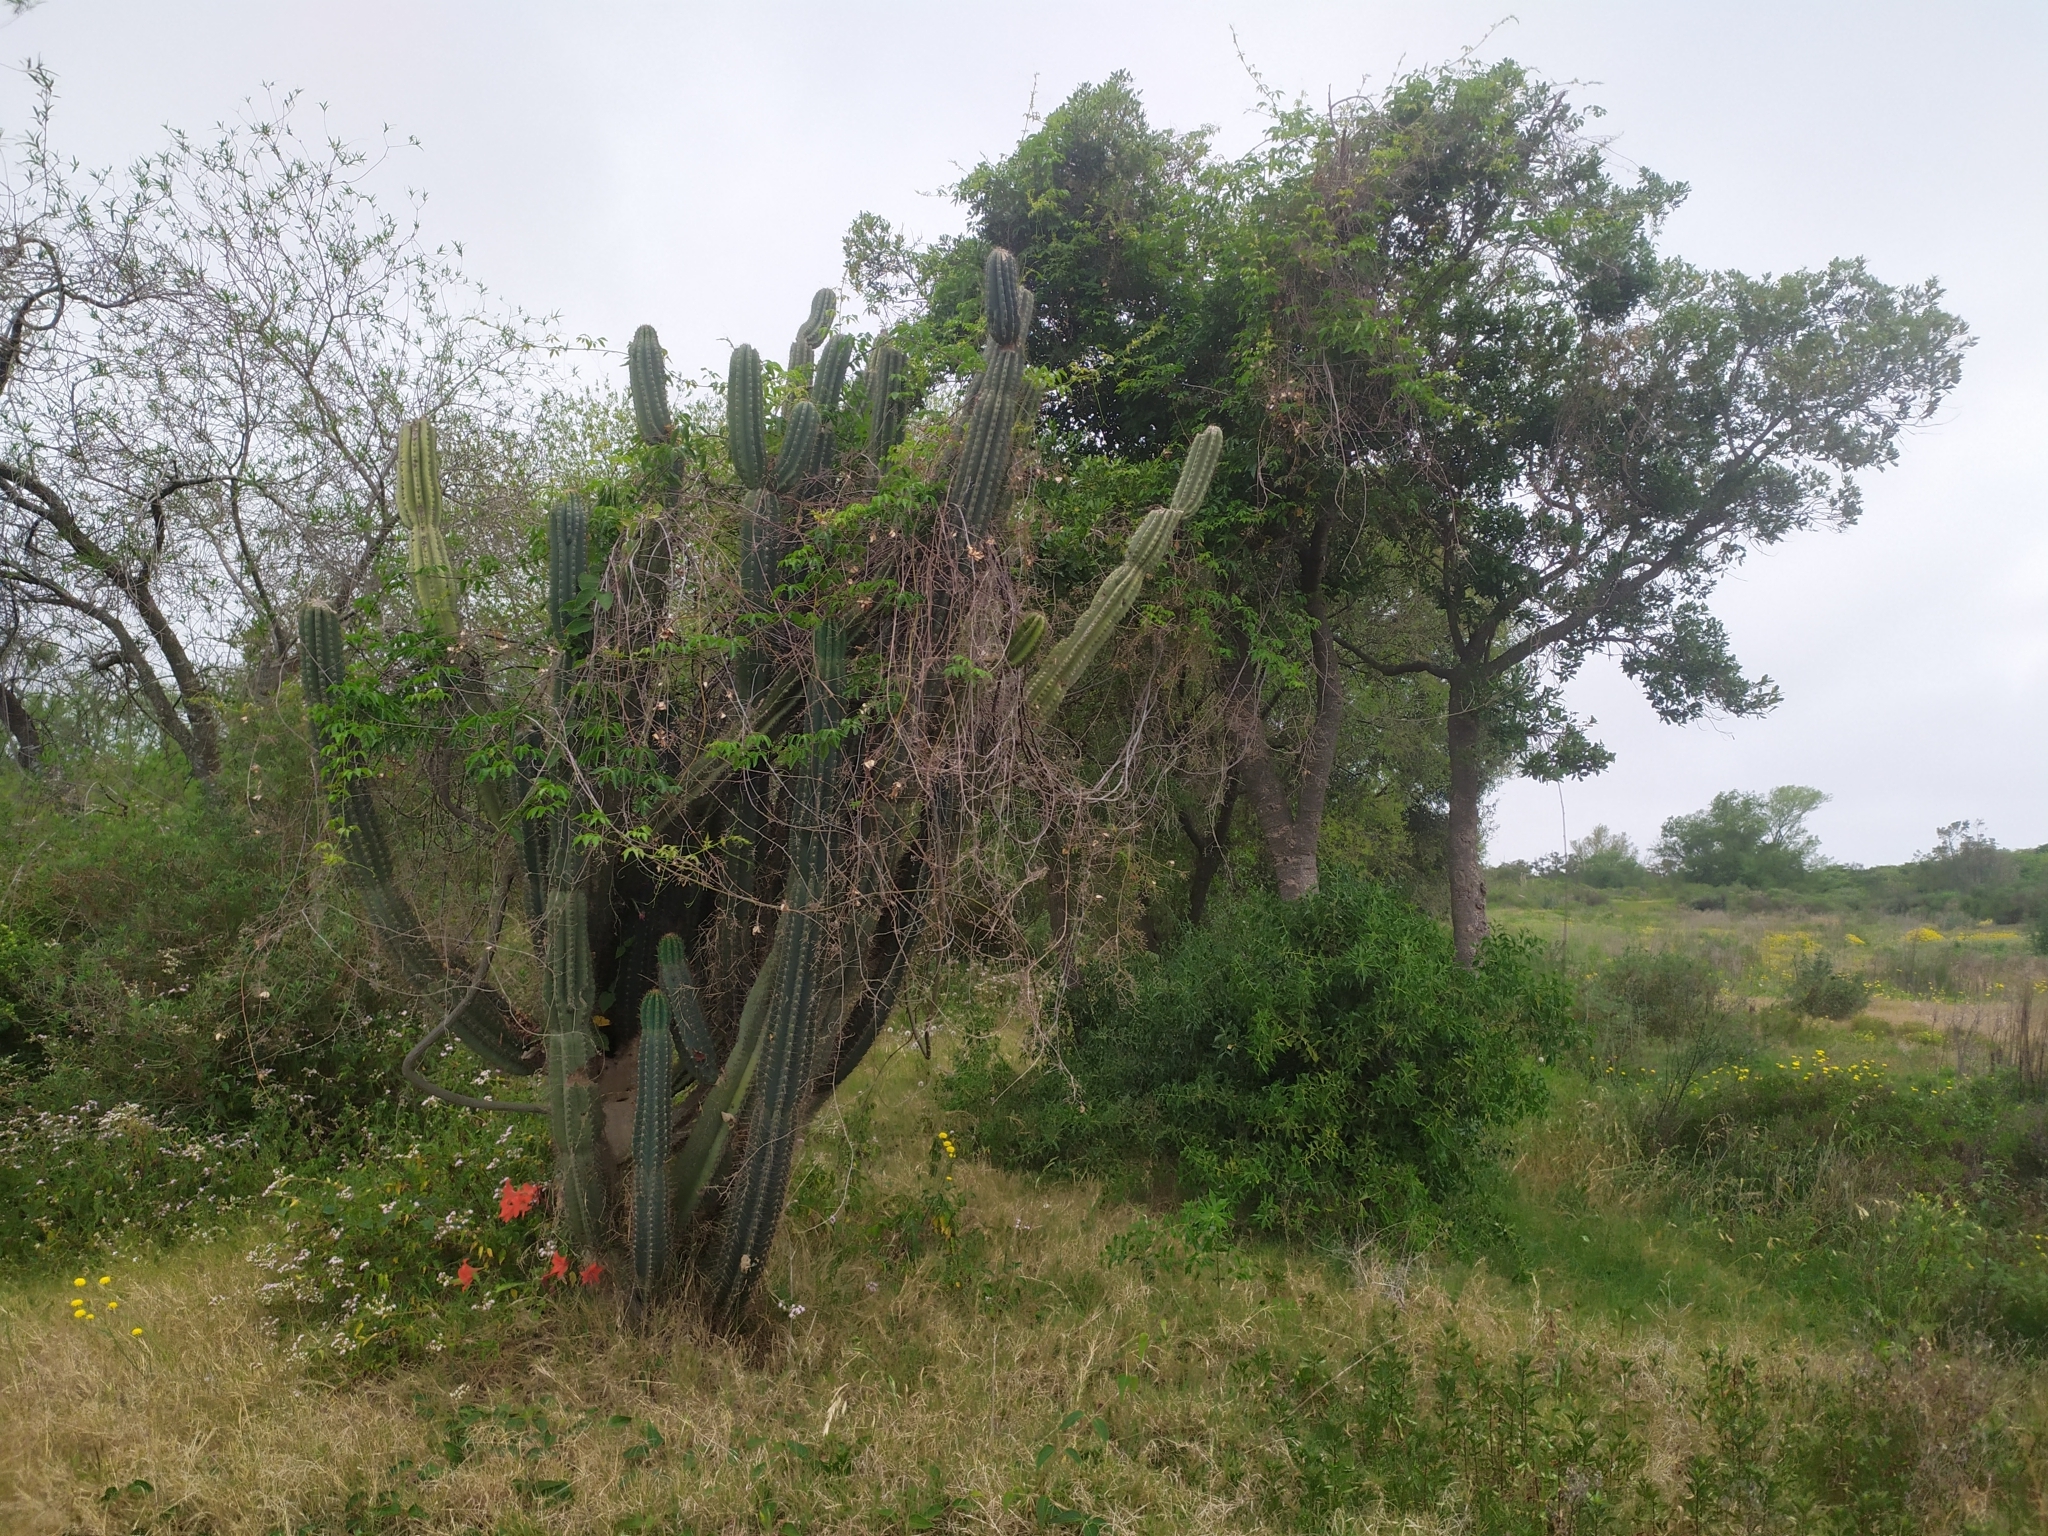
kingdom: Plantae
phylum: Tracheophyta
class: Magnoliopsida
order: Caryophyllales
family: Cactaceae
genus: Cereus
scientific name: Cereus hildmannianus
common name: Hedge cactus
